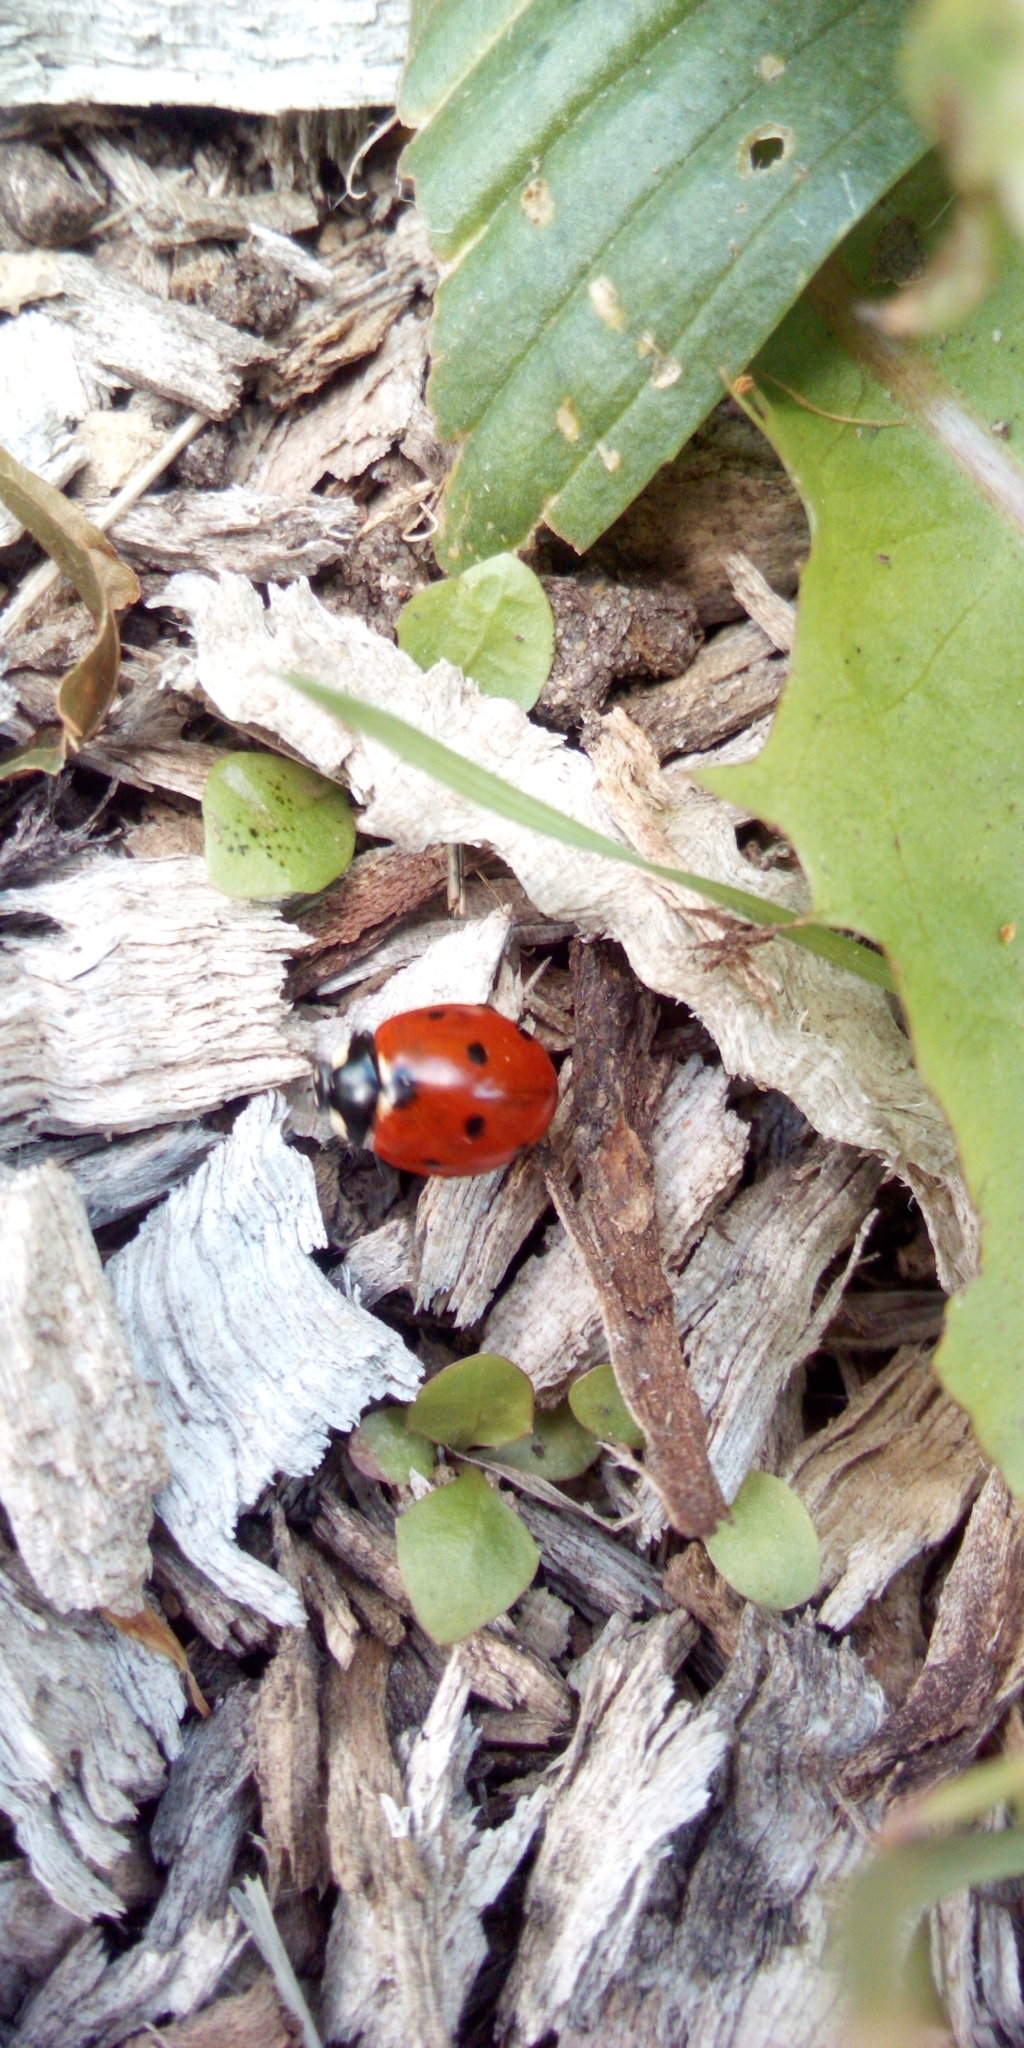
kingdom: Animalia
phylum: Arthropoda
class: Insecta
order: Coleoptera
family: Coccinellidae
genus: Coccinella
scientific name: Coccinella septempunctata
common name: Sevenspotted lady beetle
